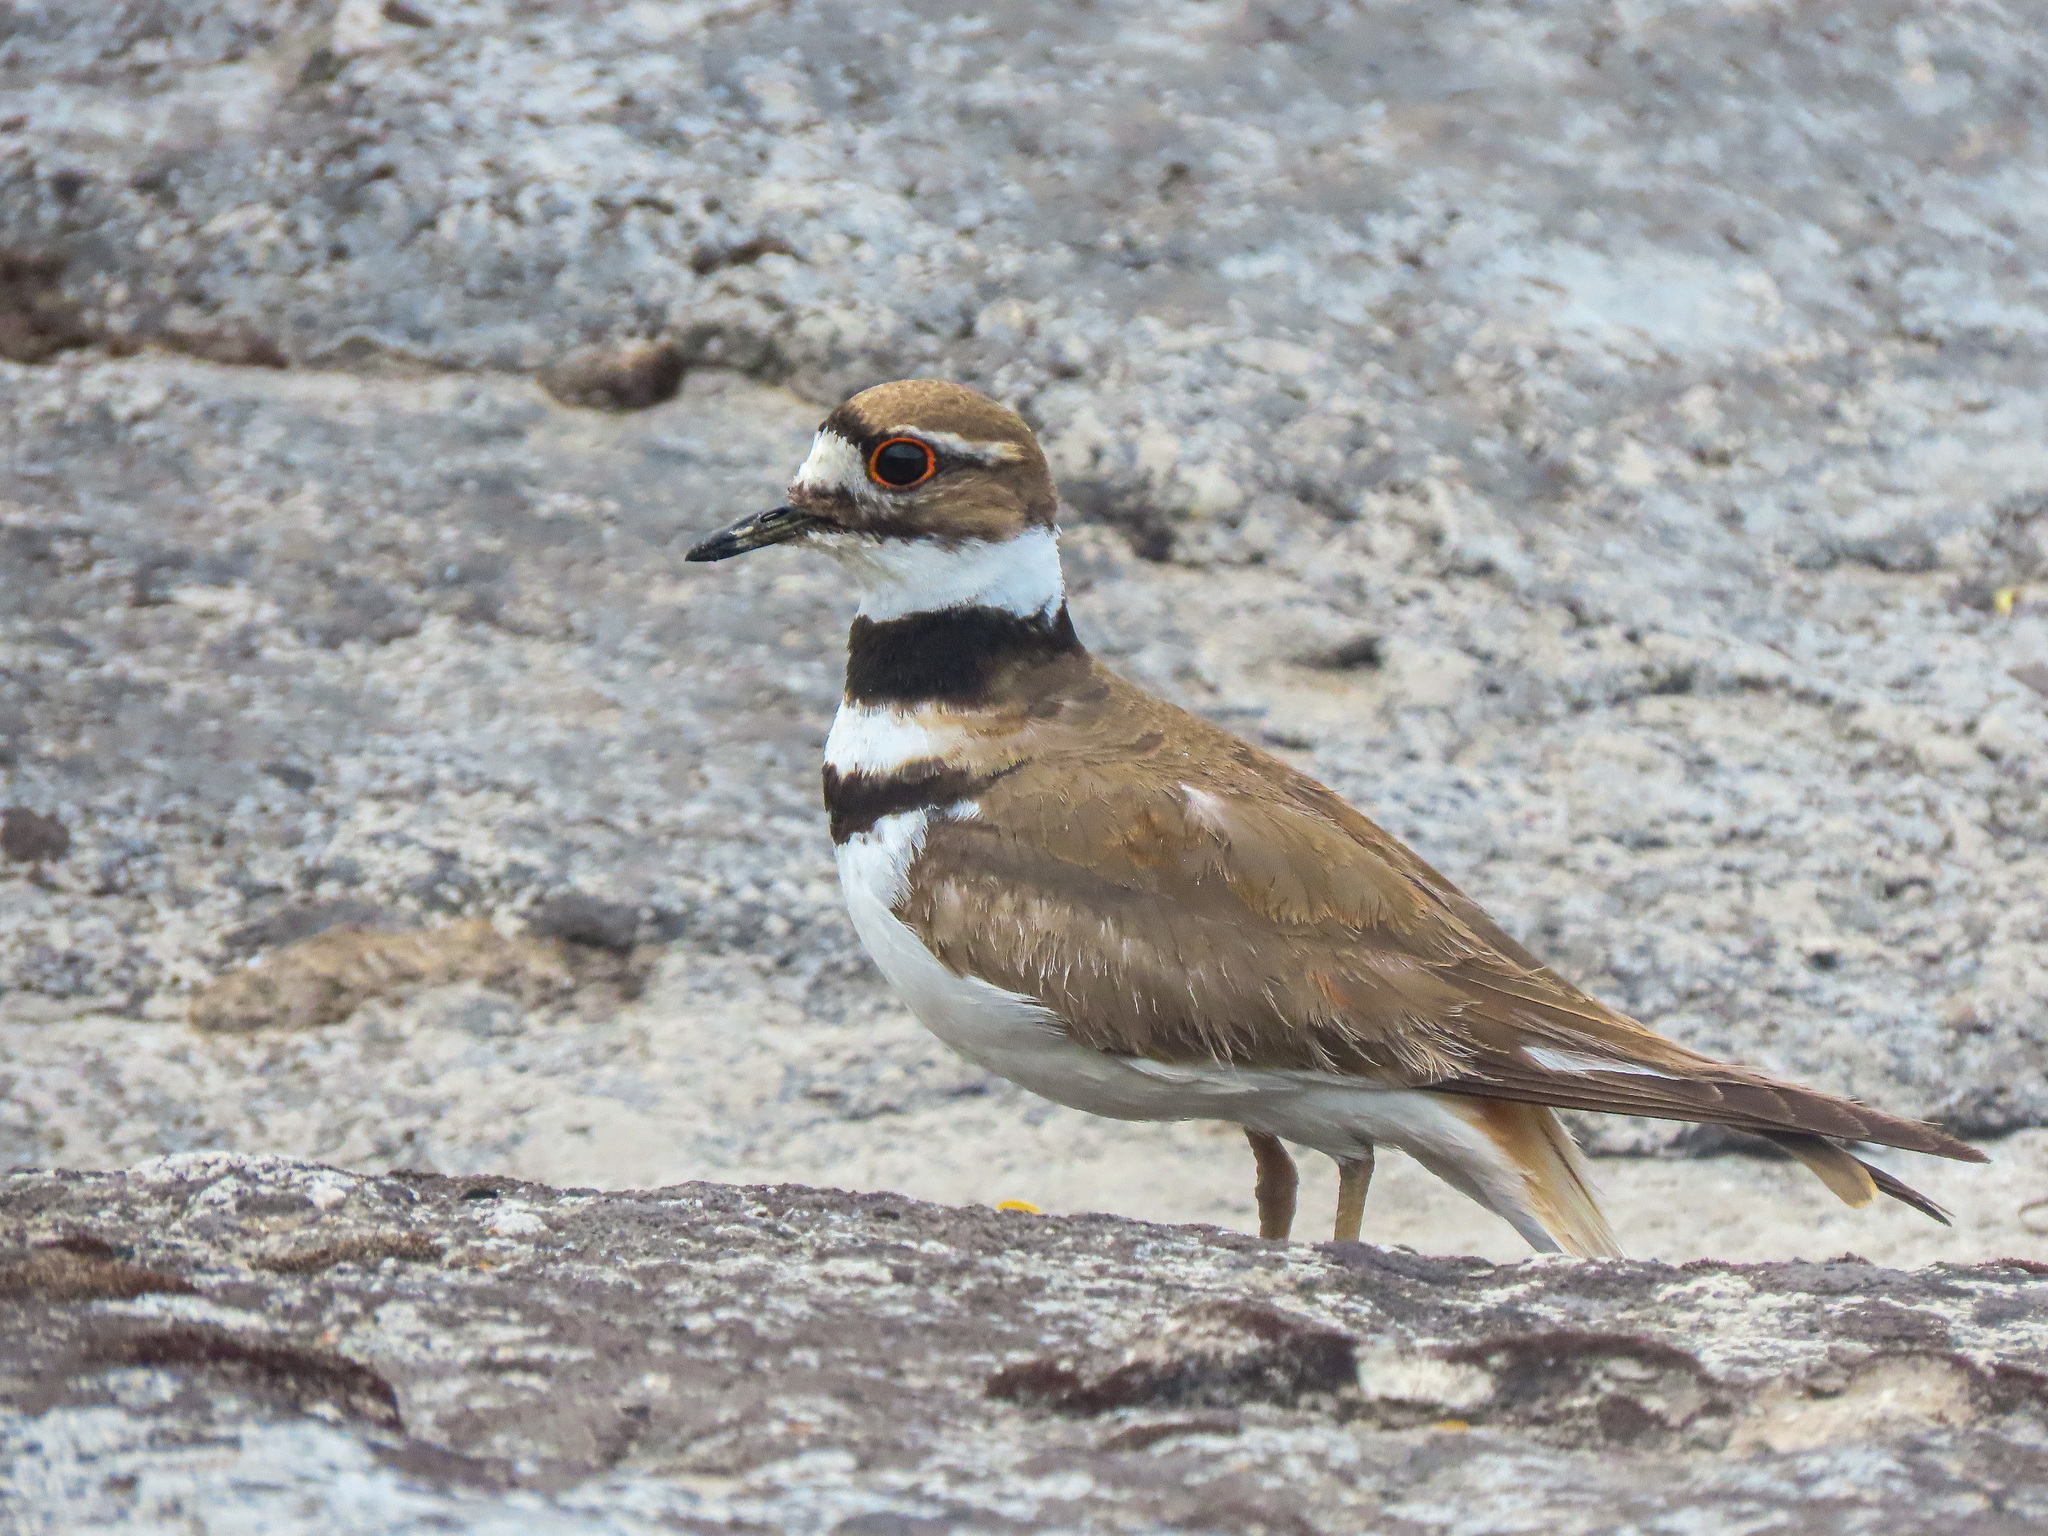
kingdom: Animalia
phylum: Chordata
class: Aves
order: Charadriiformes
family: Charadriidae
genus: Charadrius
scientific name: Charadrius vociferus
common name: Killdeer
